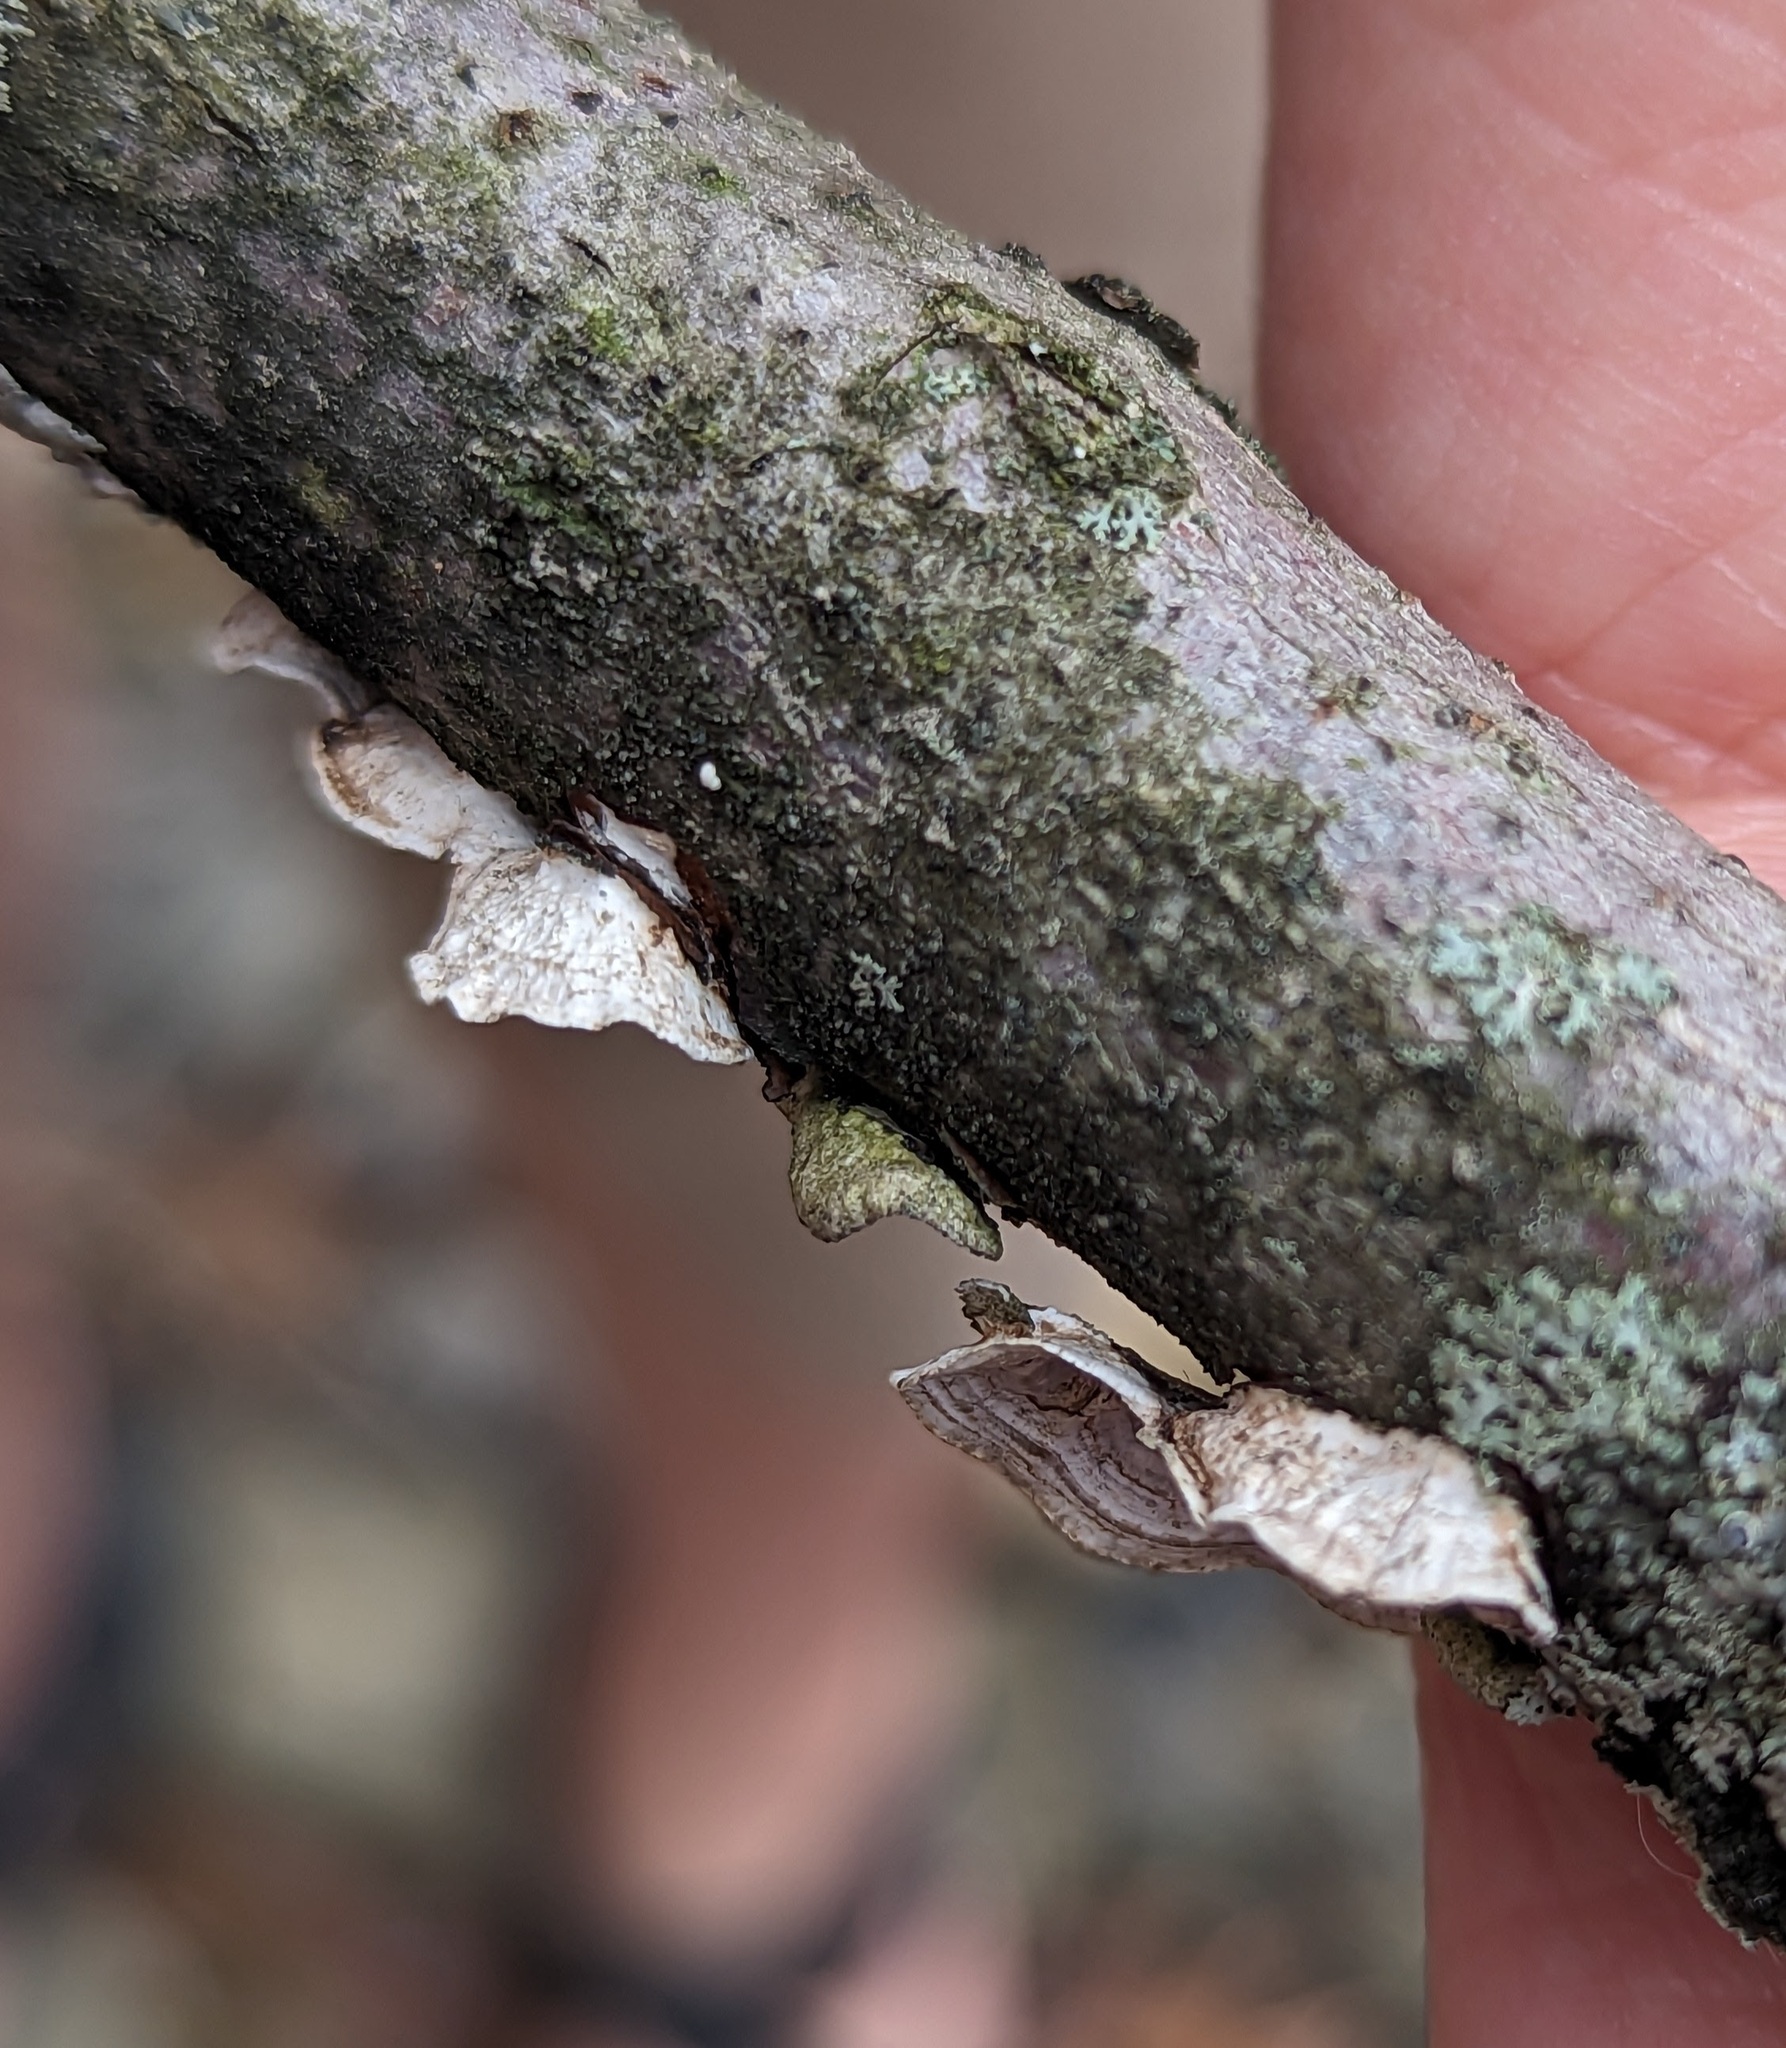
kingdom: Fungi
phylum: Basidiomycota
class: Agaricomycetes
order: Polyporales
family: Polyporaceae
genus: Poronidulus
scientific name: Poronidulus conchifer
